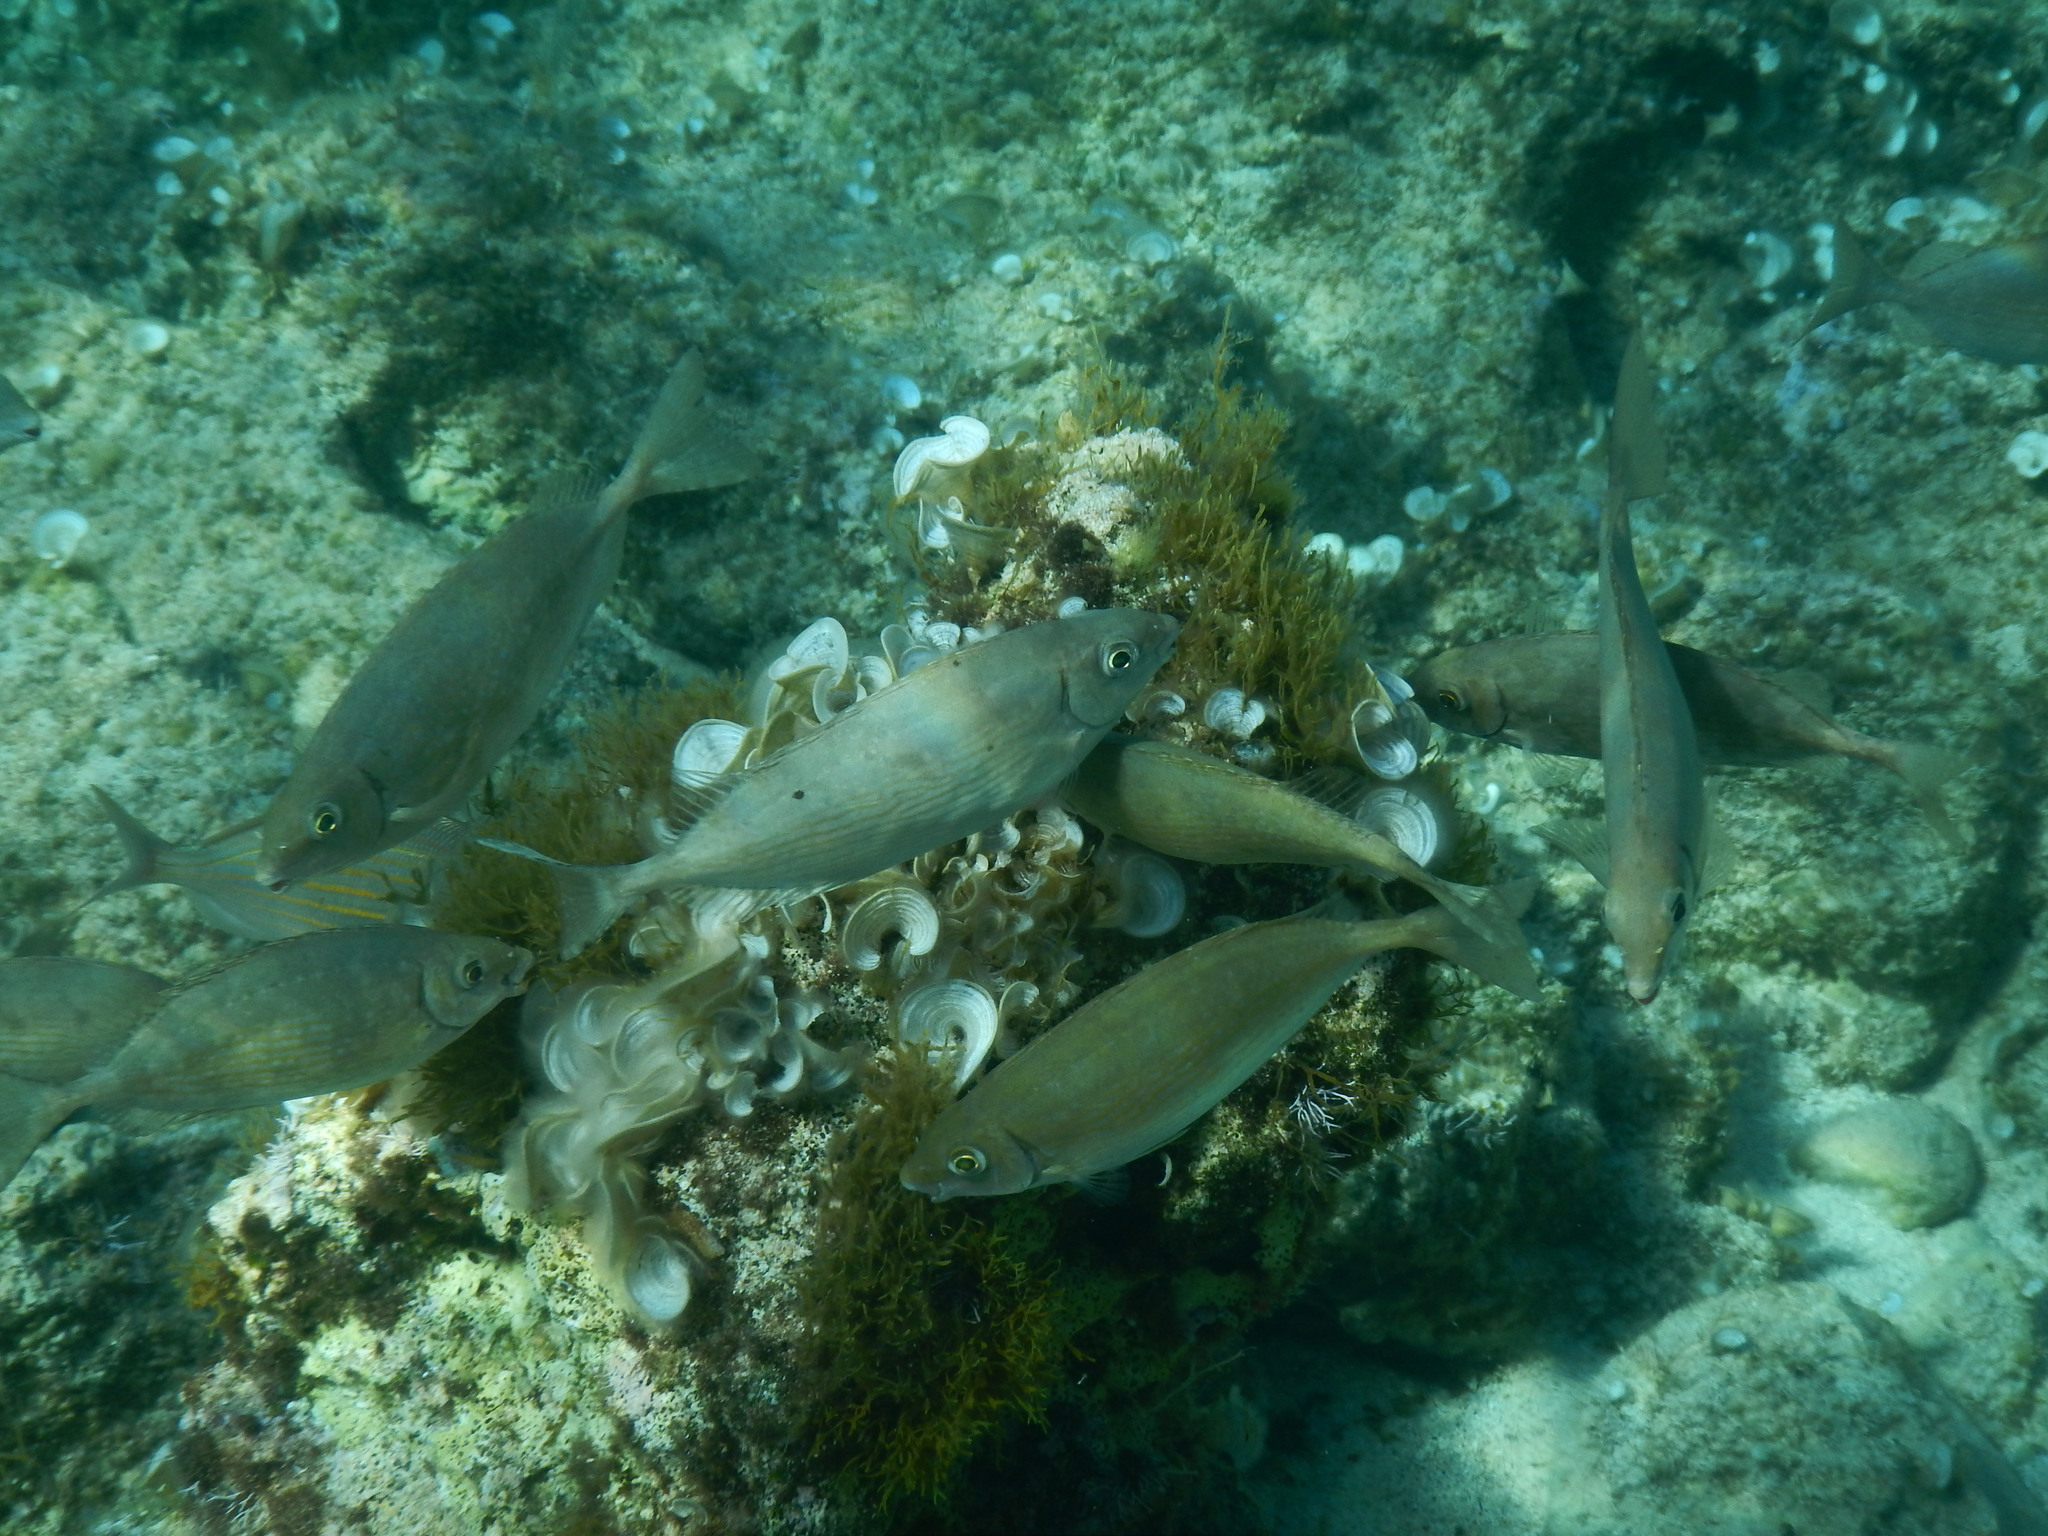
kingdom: Animalia
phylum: Chordata
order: Perciformes
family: Siganidae
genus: Siganus
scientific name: Siganus rivulatus
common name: Marbled spinefoot
